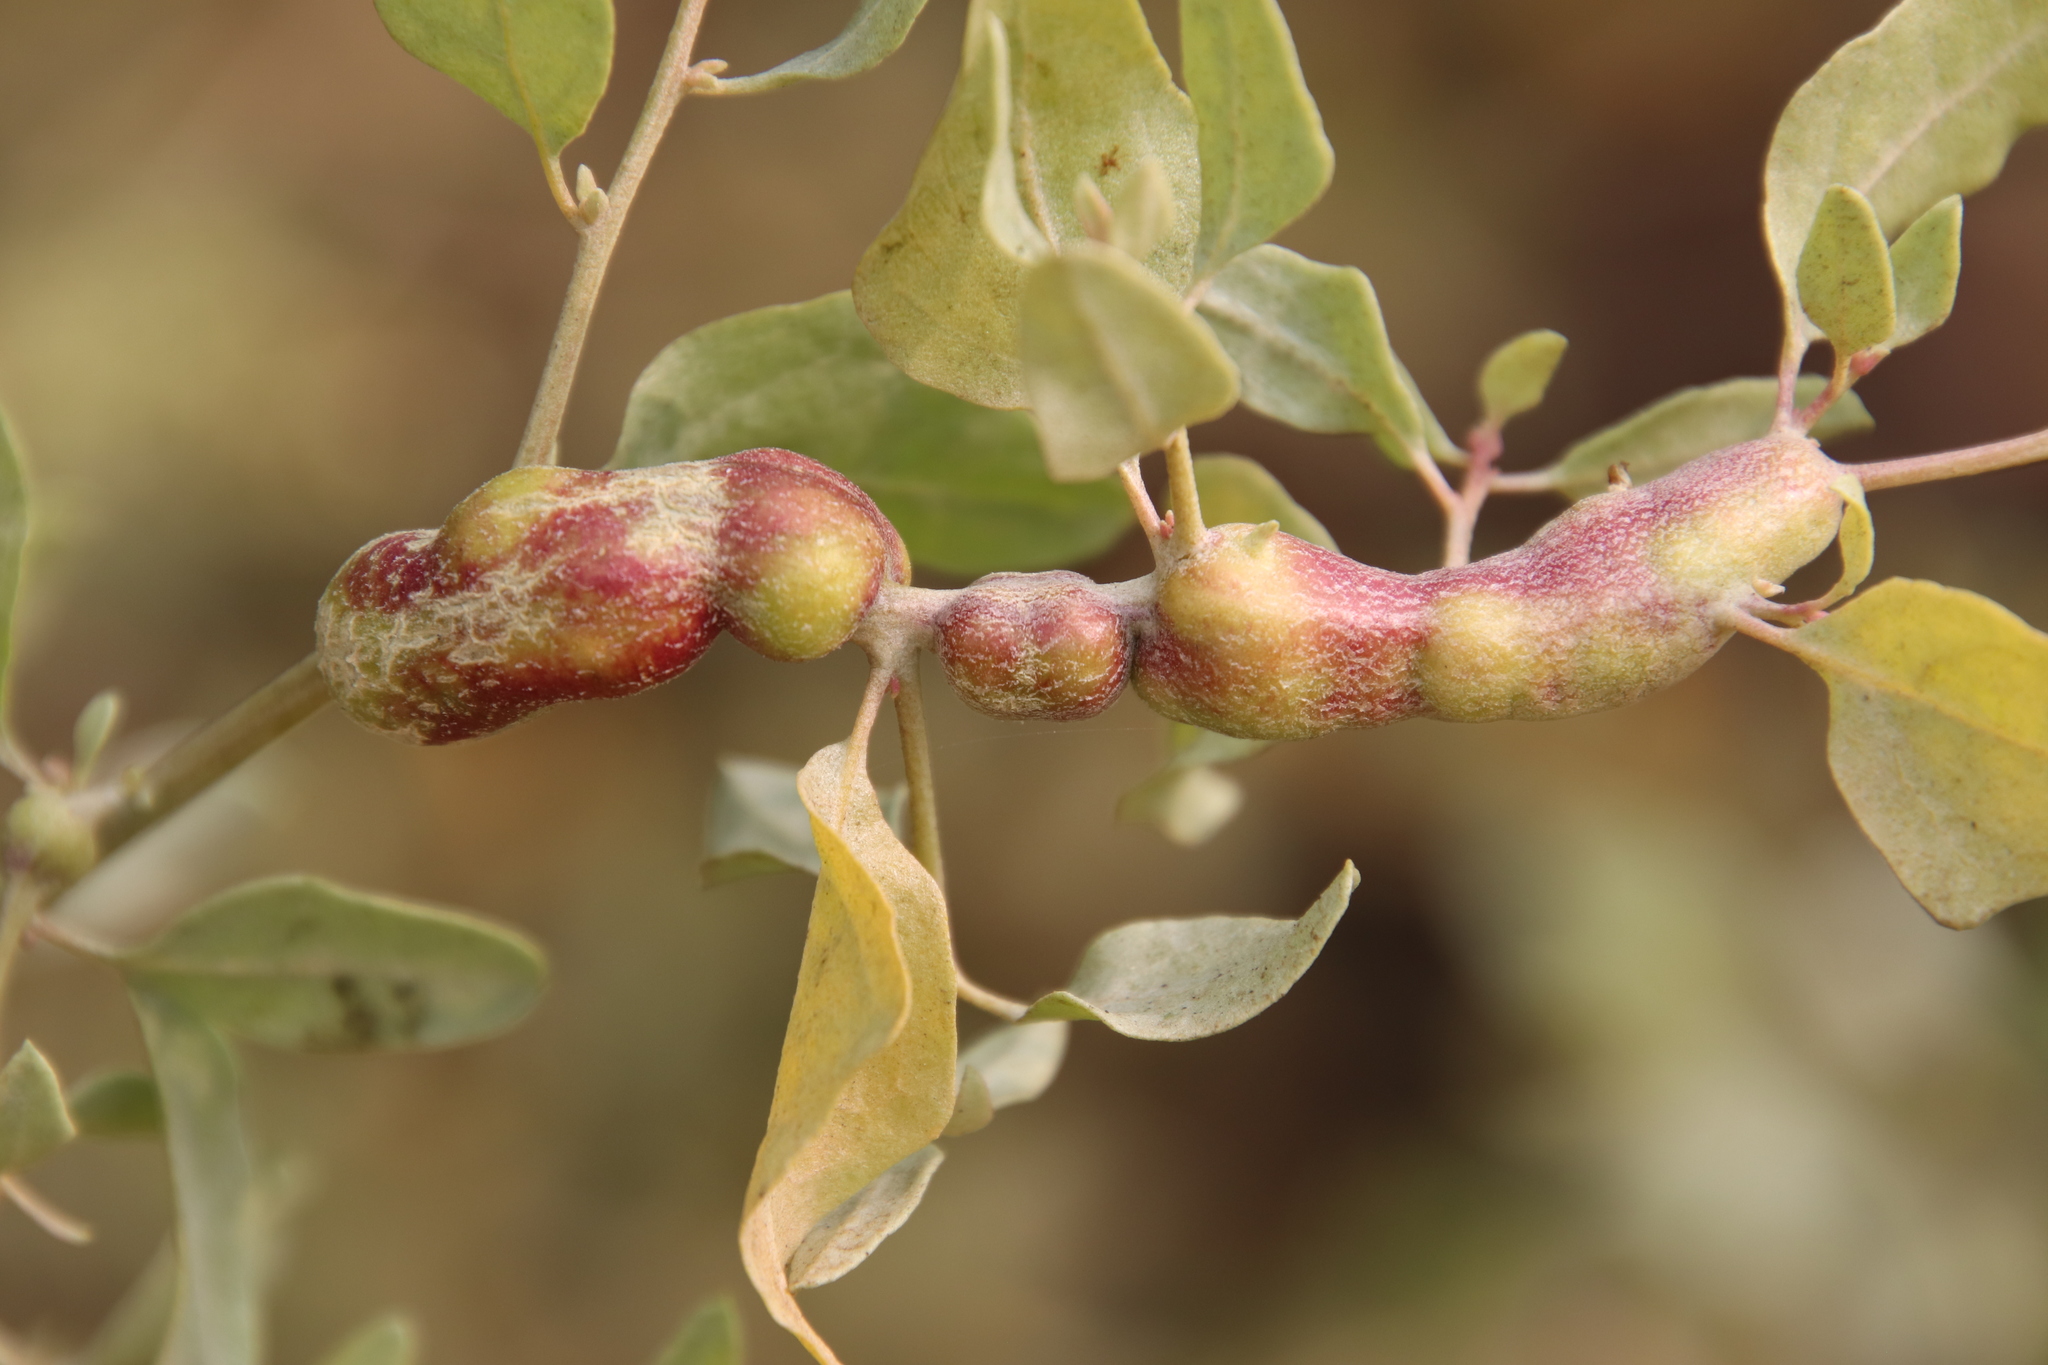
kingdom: Animalia
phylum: Arthropoda
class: Insecta
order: Diptera
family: Cecidomyiidae
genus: Asphondylia
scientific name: Asphondylia atriplicis
